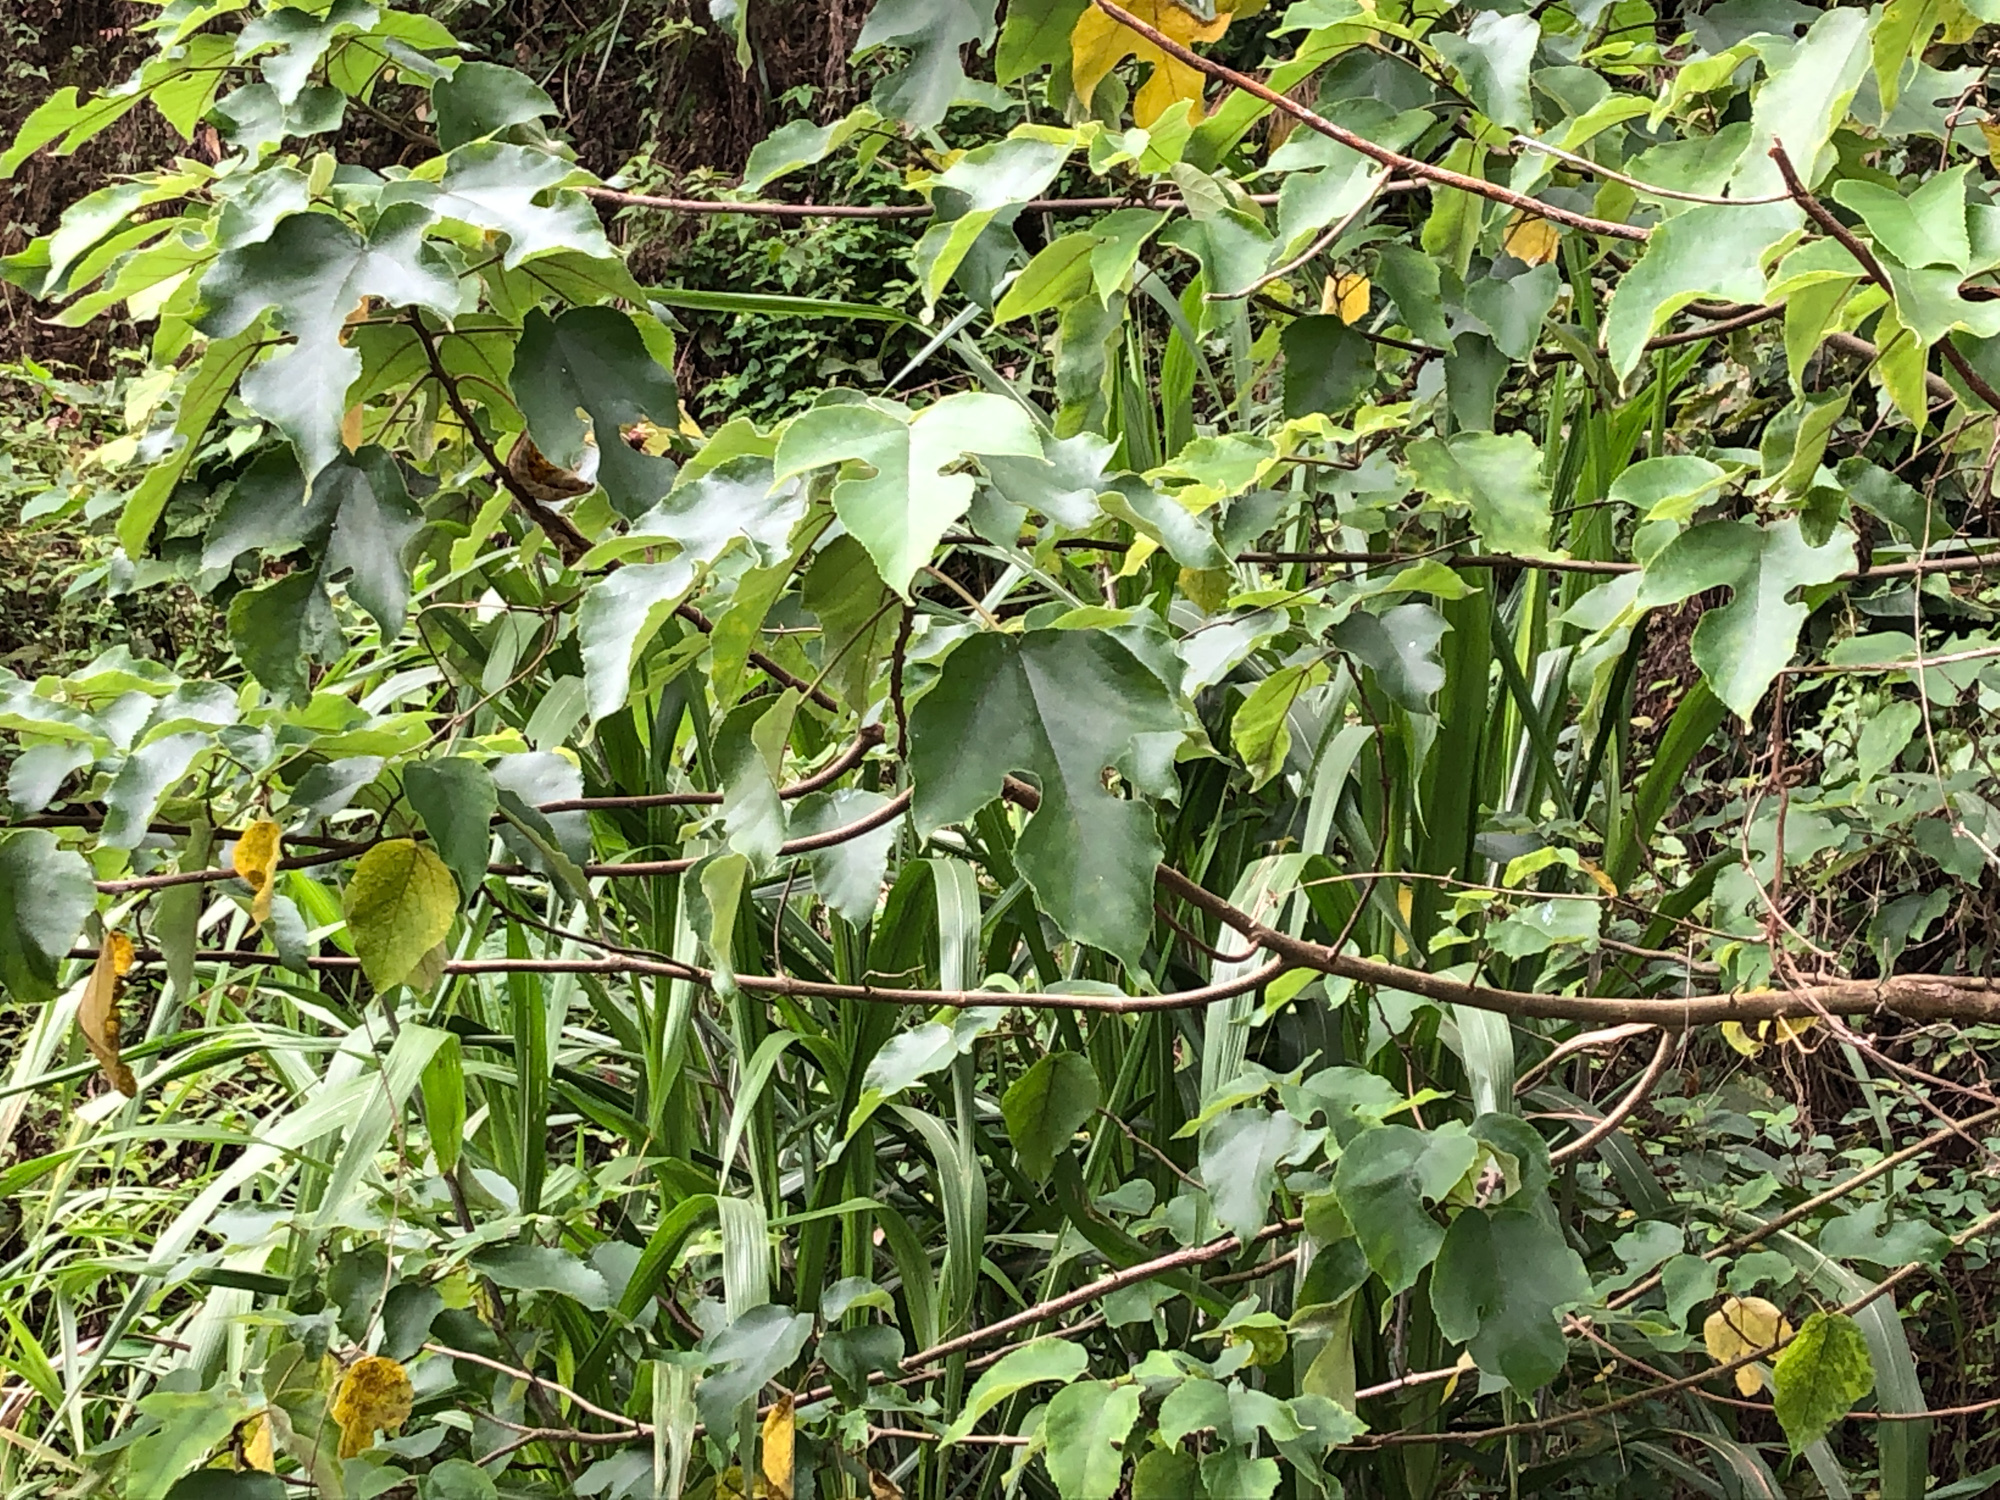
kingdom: Plantae
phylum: Tracheophyta
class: Magnoliopsida
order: Rosales
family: Moraceae
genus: Broussonetia
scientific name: Broussonetia papyrifera
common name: Paper mulberry
